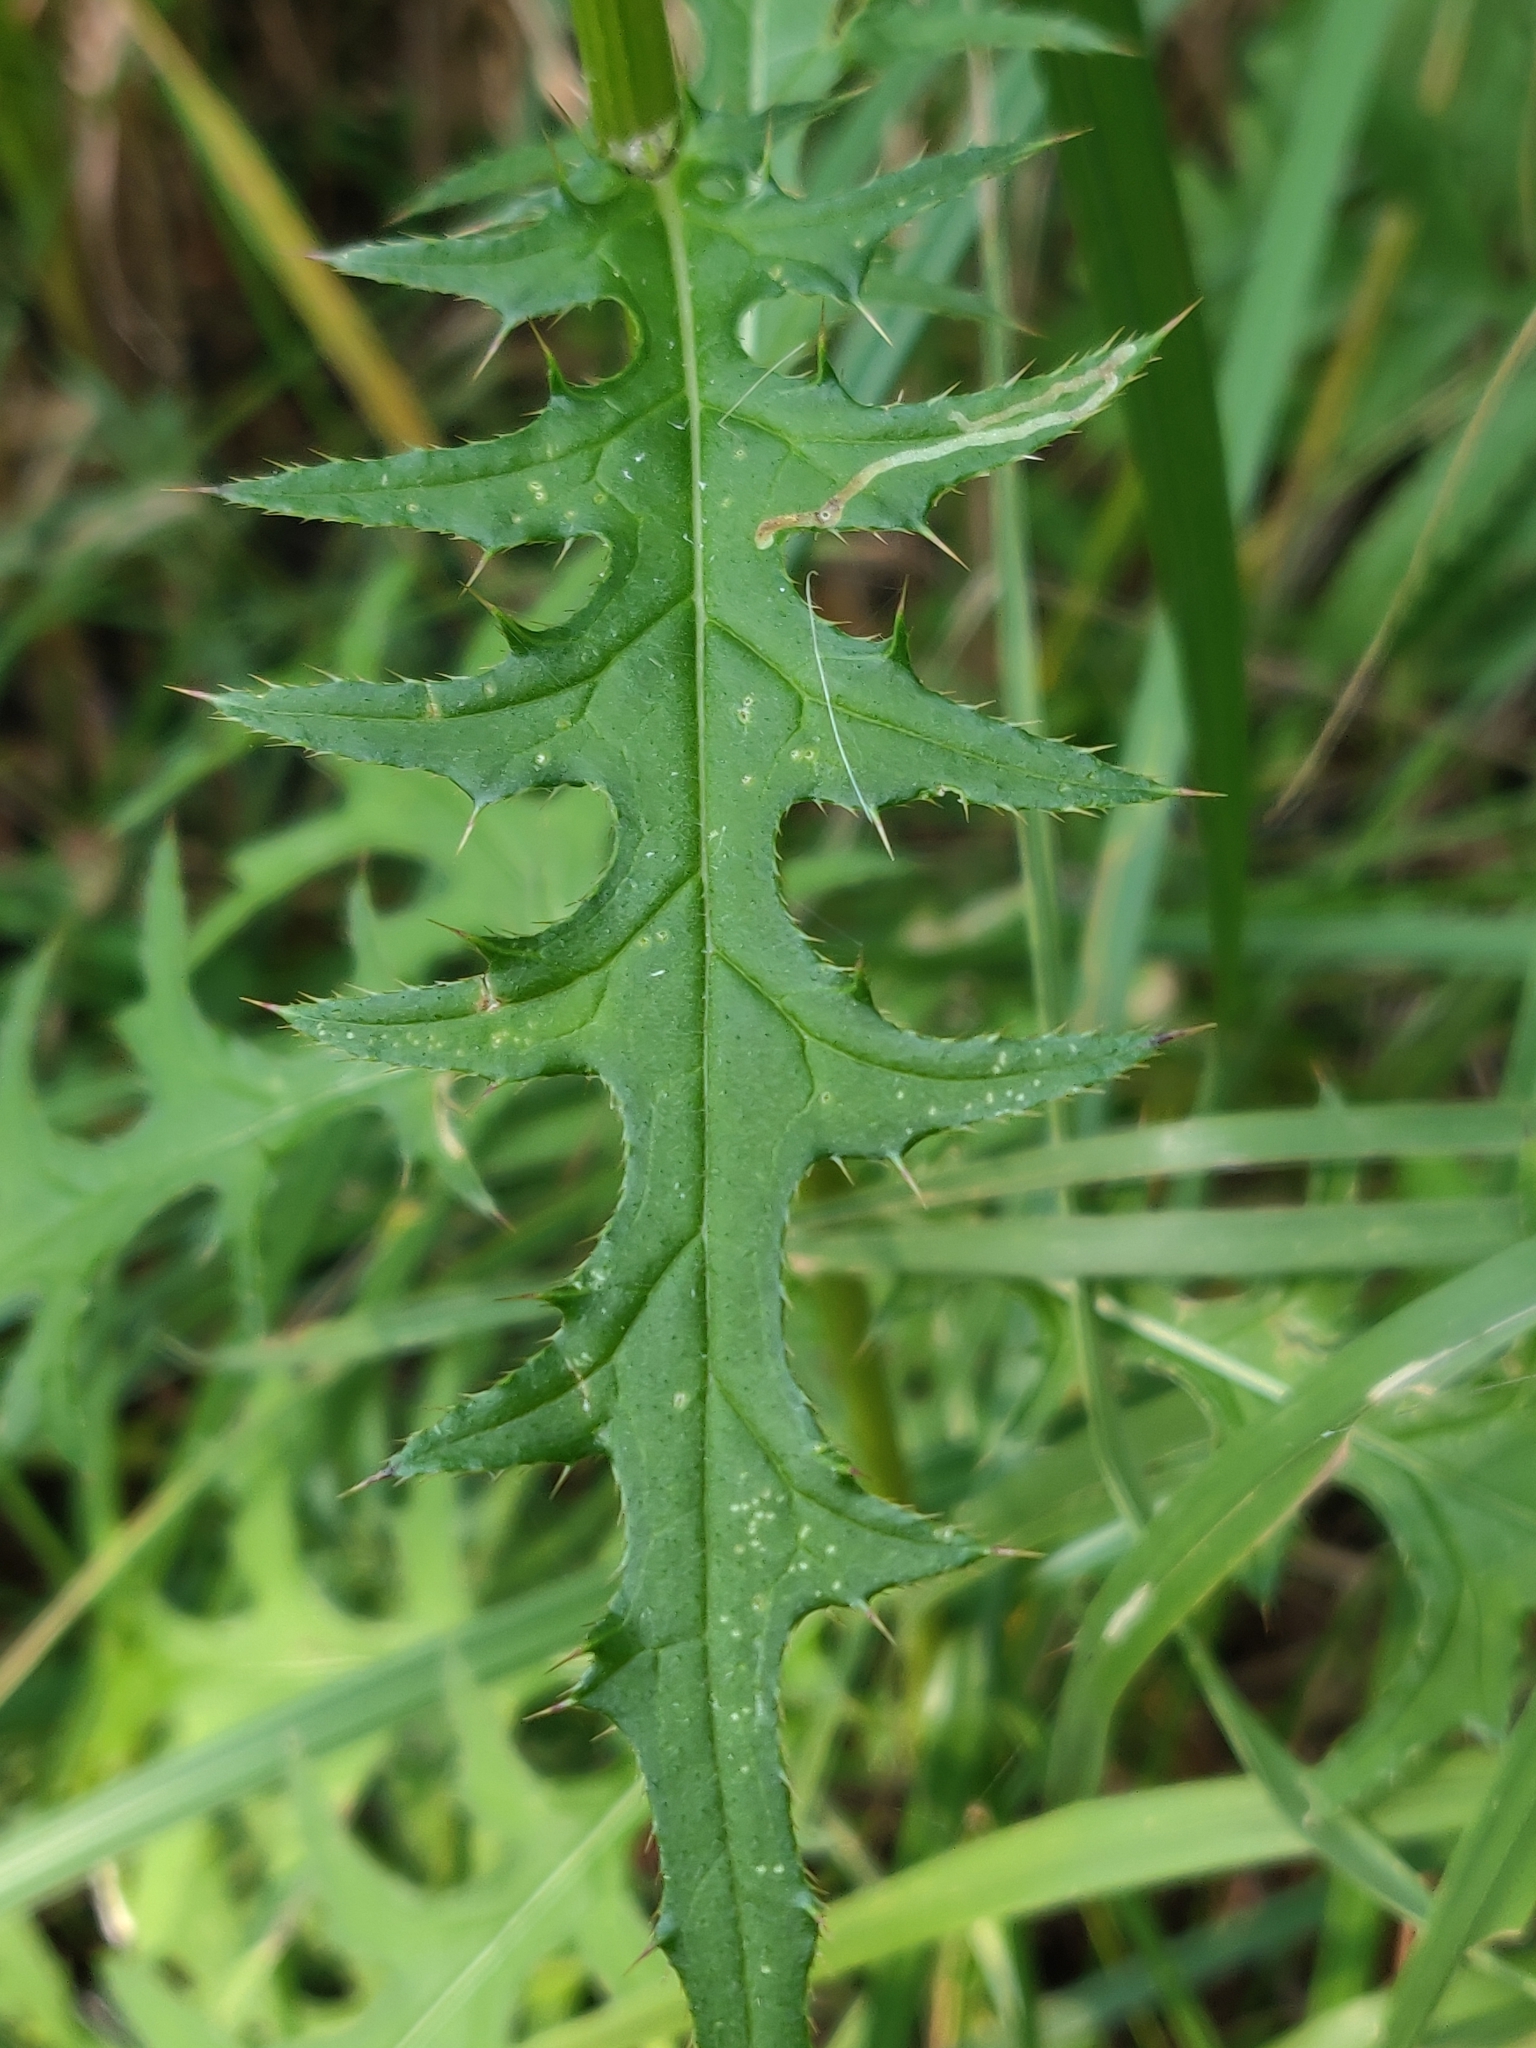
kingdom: Plantae
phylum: Tracheophyta
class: Magnoliopsida
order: Asterales
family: Asteraceae
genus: Cirsium
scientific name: Cirsium muticum
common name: Dunce-nettle
